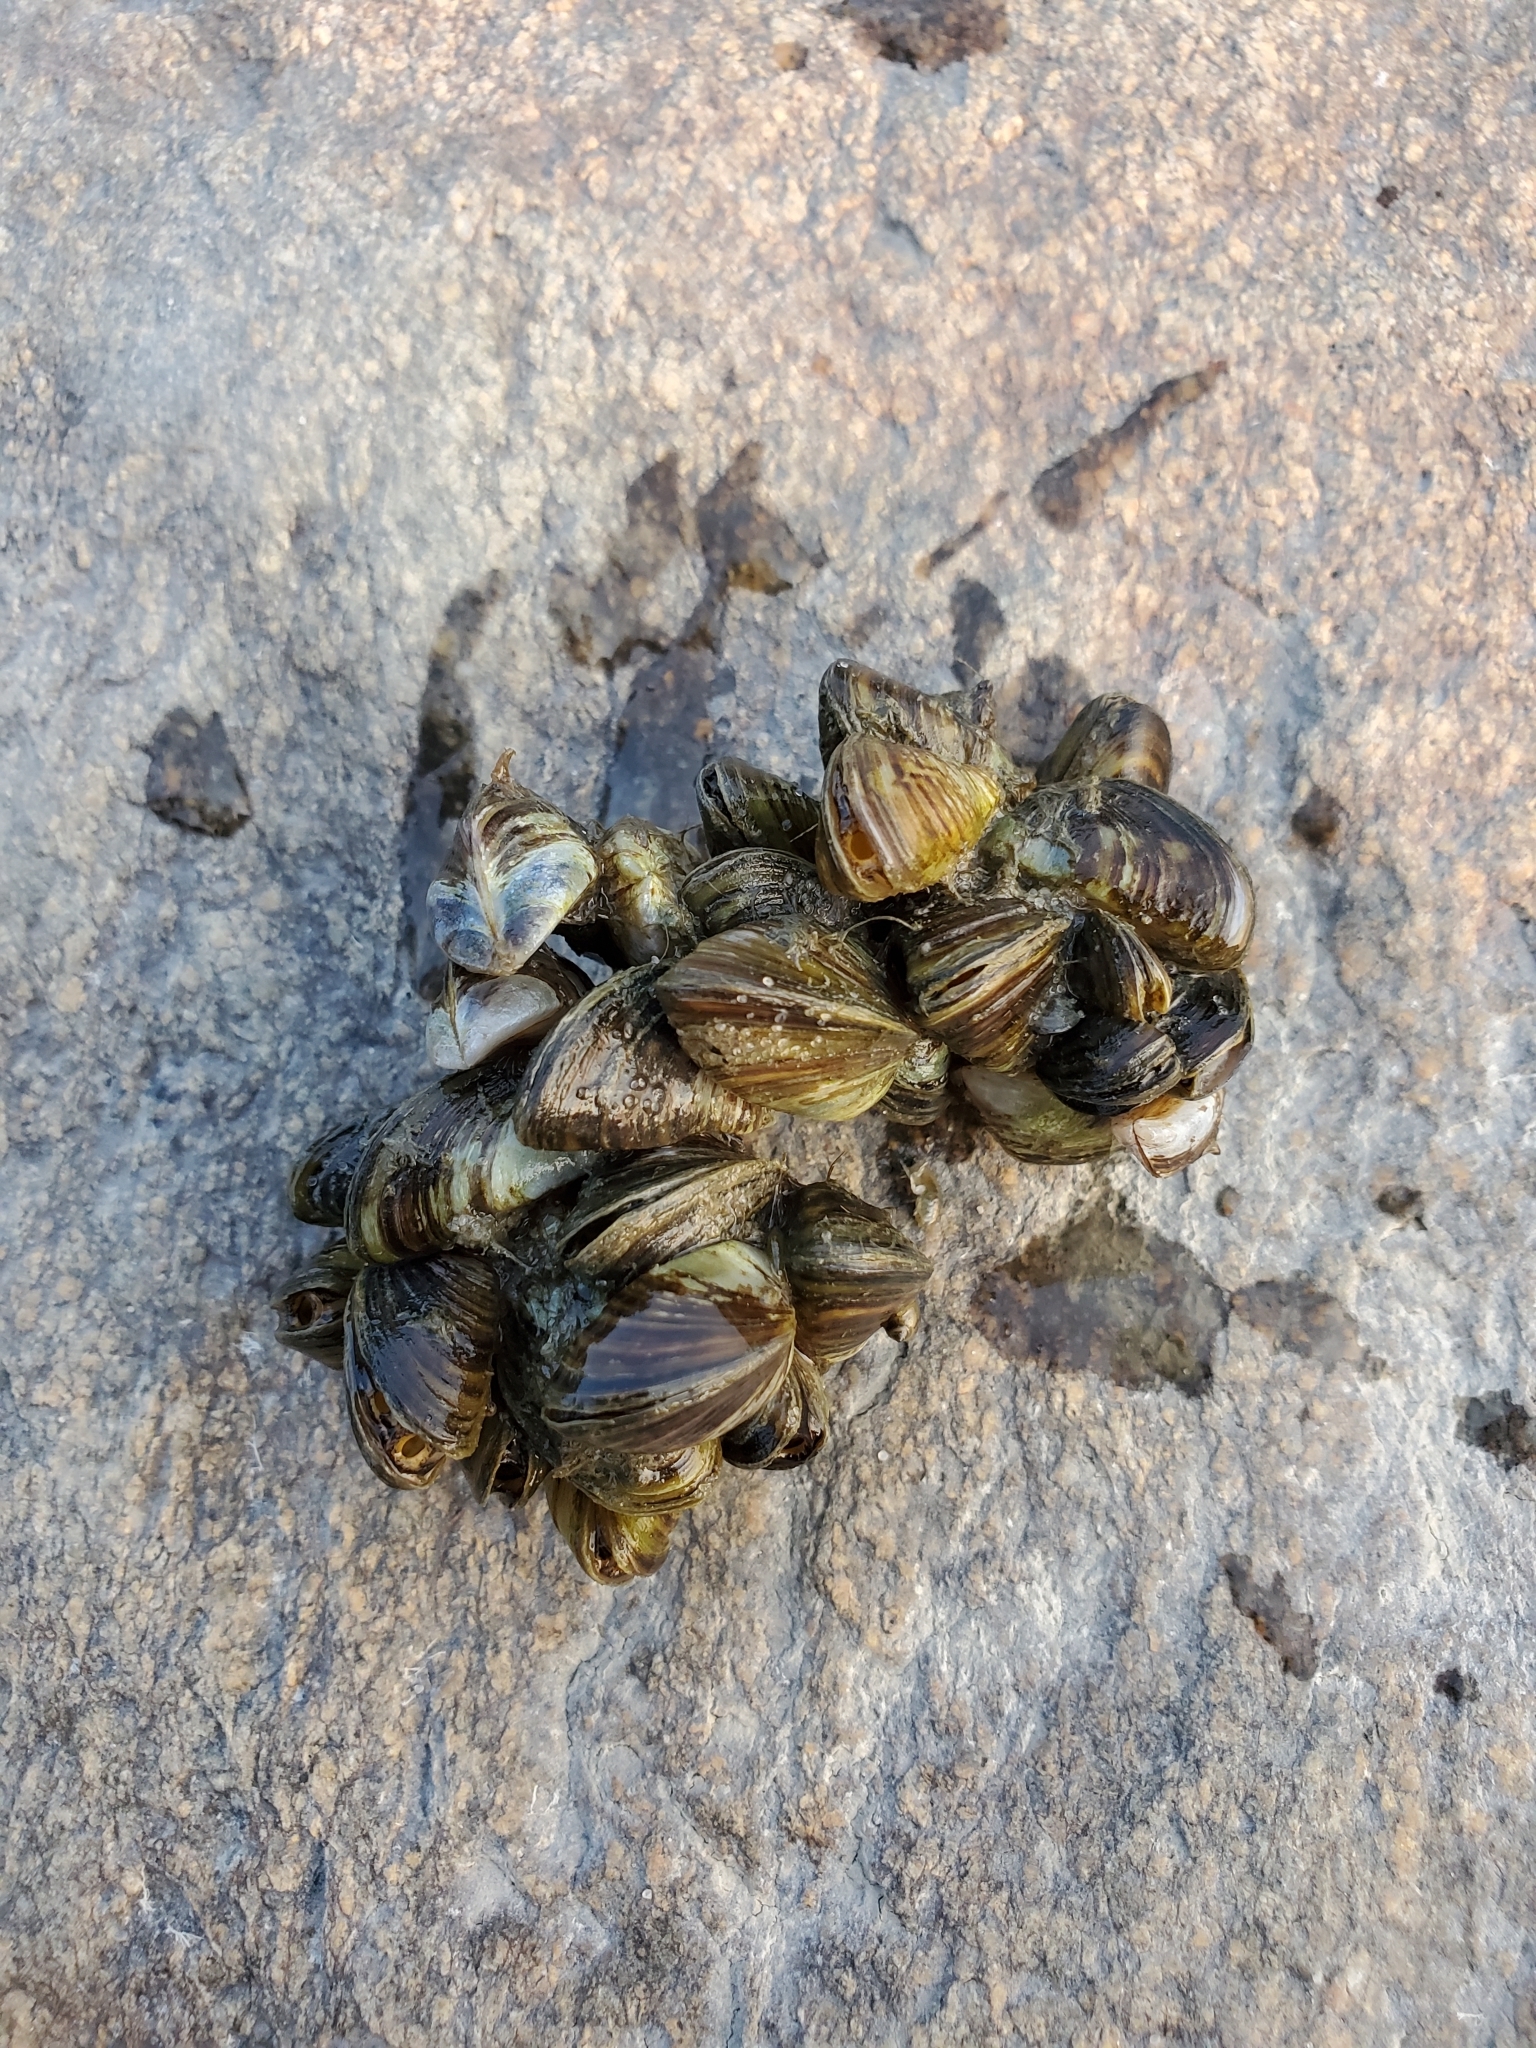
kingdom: Animalia
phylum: Mollusca
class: Bivalvia
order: Myida
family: Dreissenidae
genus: Dreissena
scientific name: Dreissena polymorpha
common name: Zebra mussel
